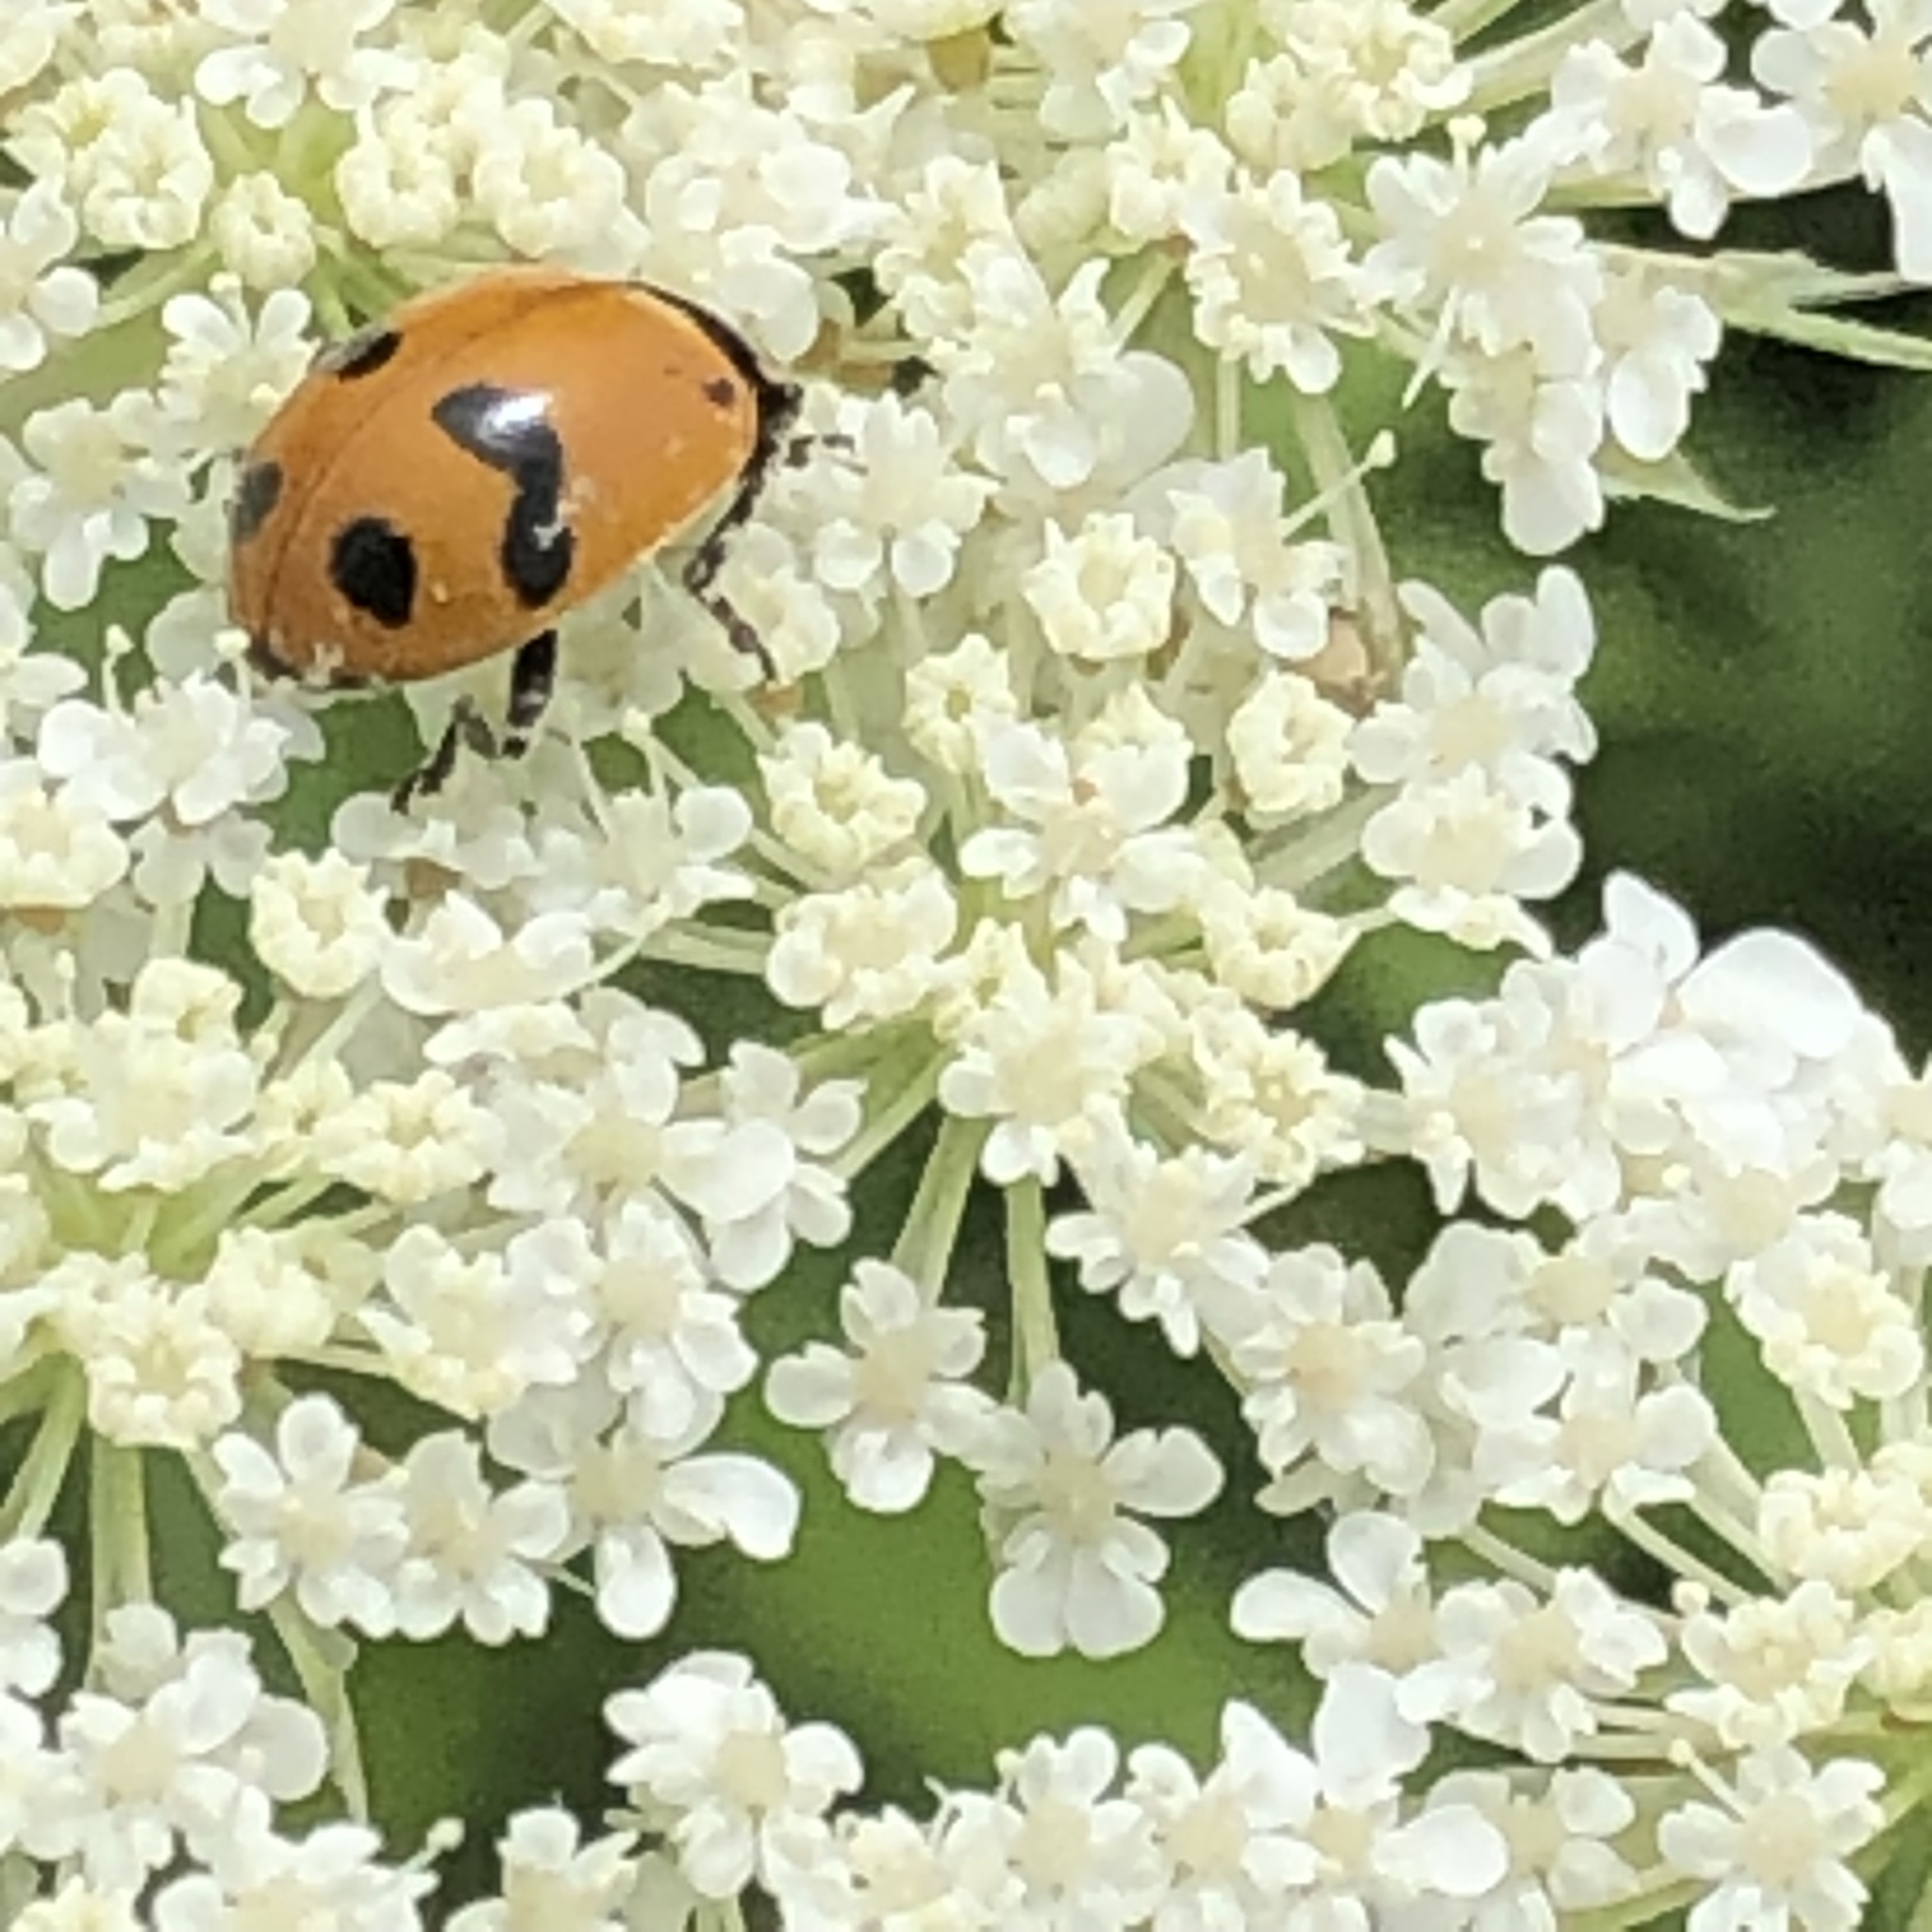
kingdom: Animalia
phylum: Arthropoda
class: Insecta
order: Coleoptera
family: Coccinellidae
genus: Hippodamia
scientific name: Hippodamia glacialis
